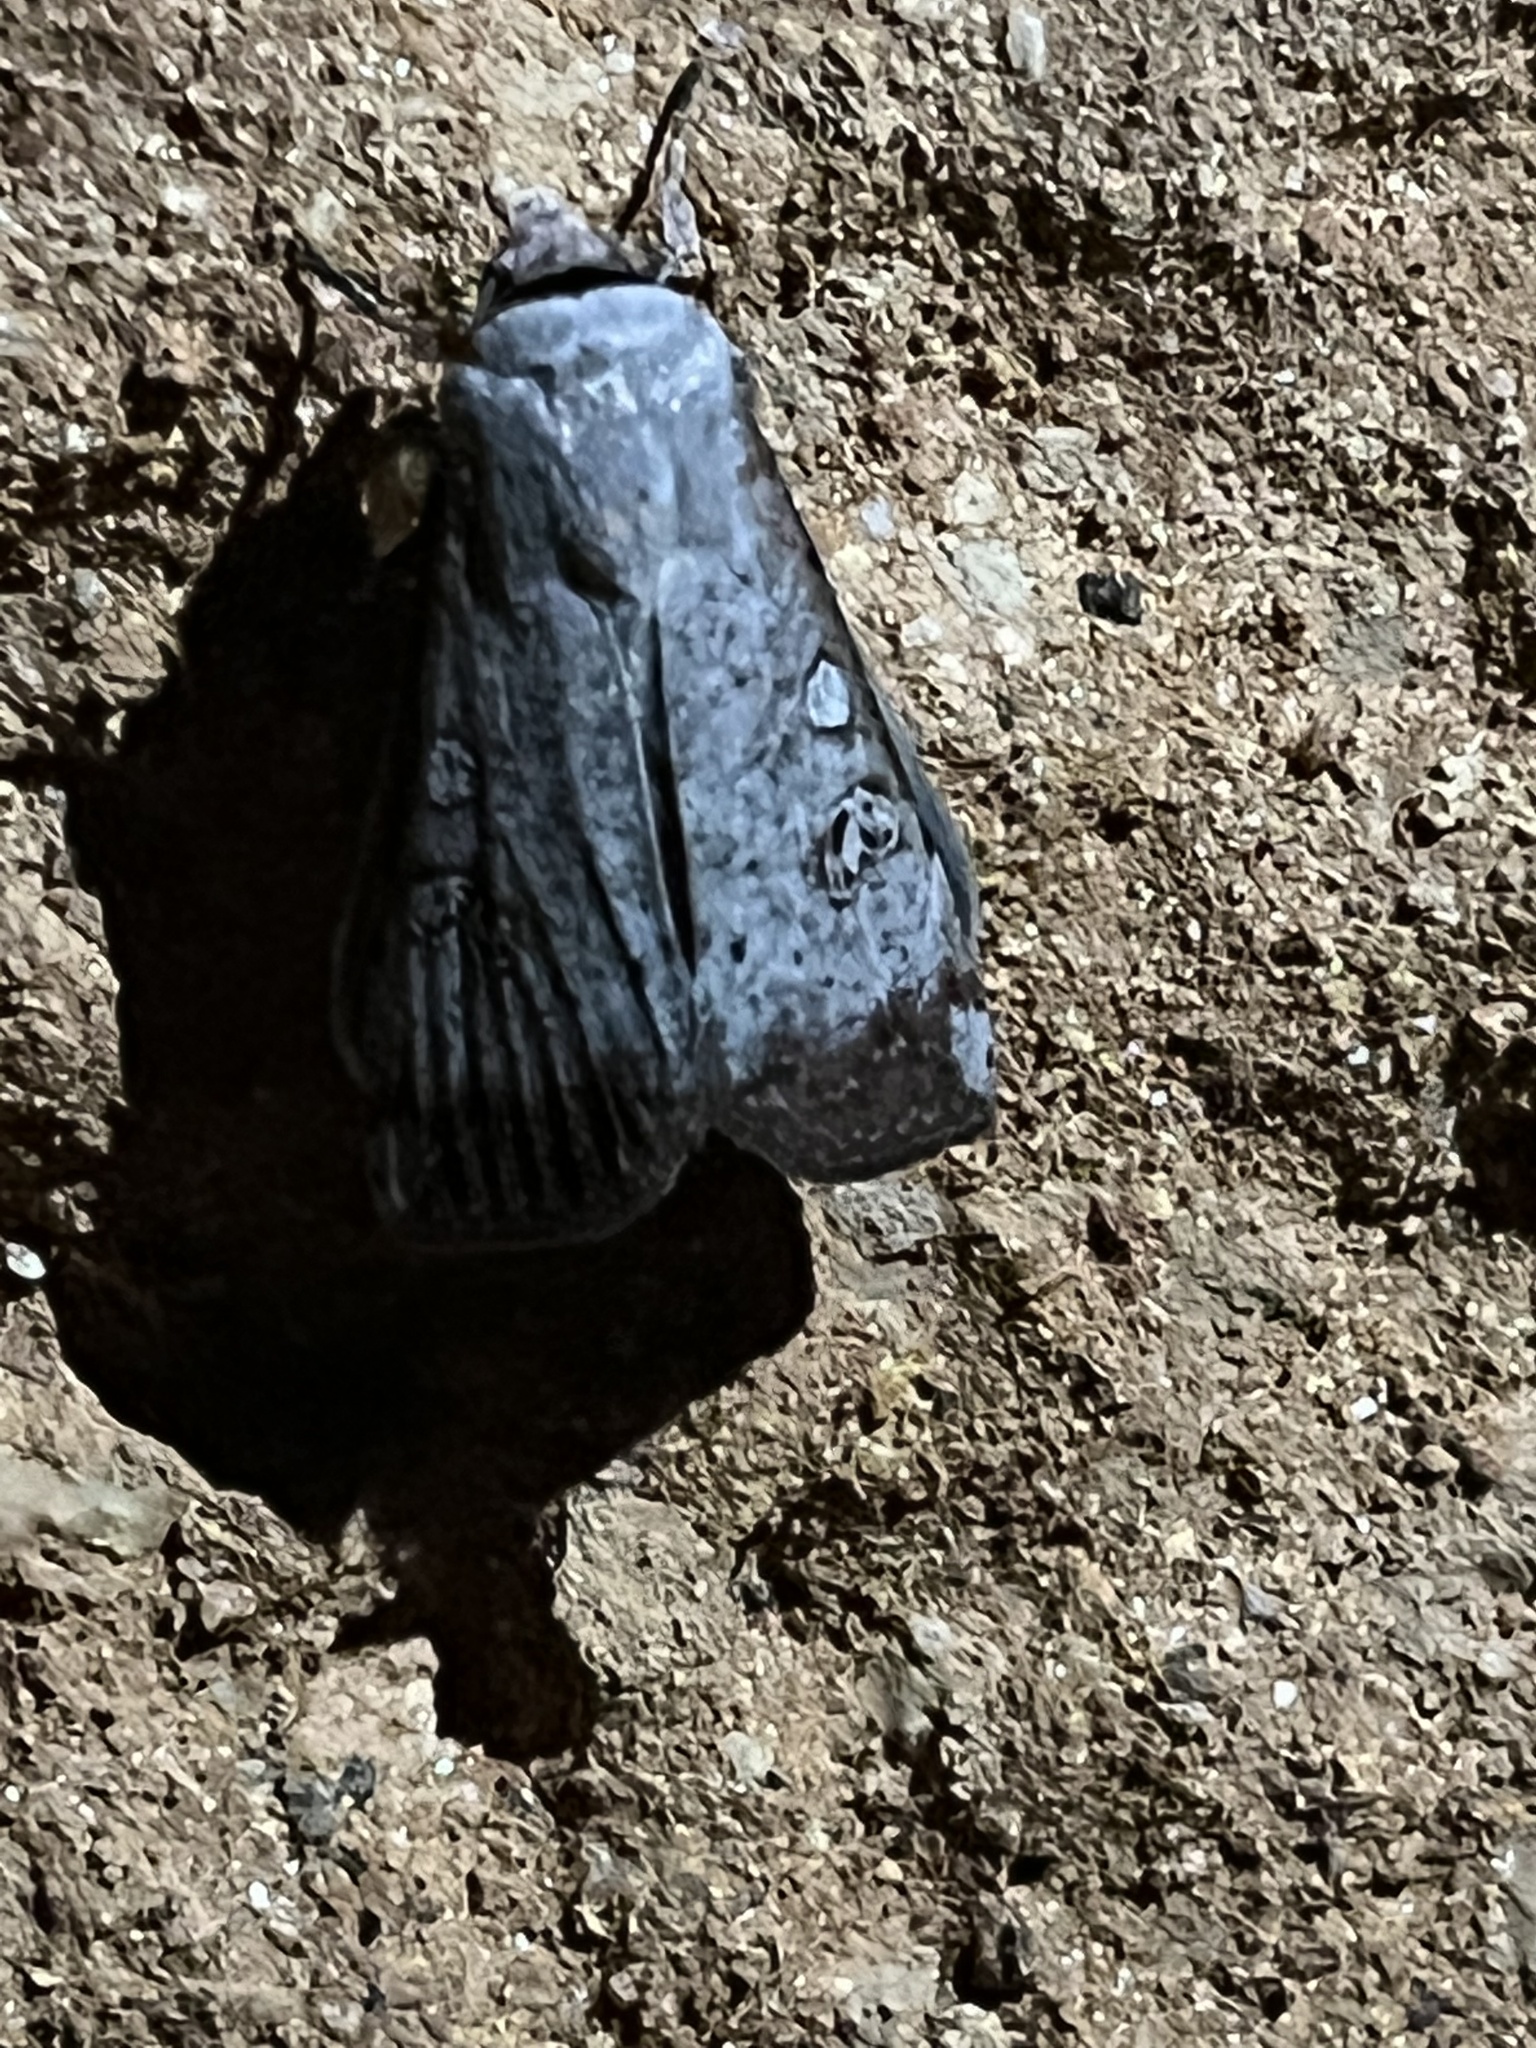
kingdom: Animalia
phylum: Arthropoda
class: Insecta
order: Lepidoptera
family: Noctuidae
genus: Anicla
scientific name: Anicla infecta
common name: Green cutworm
